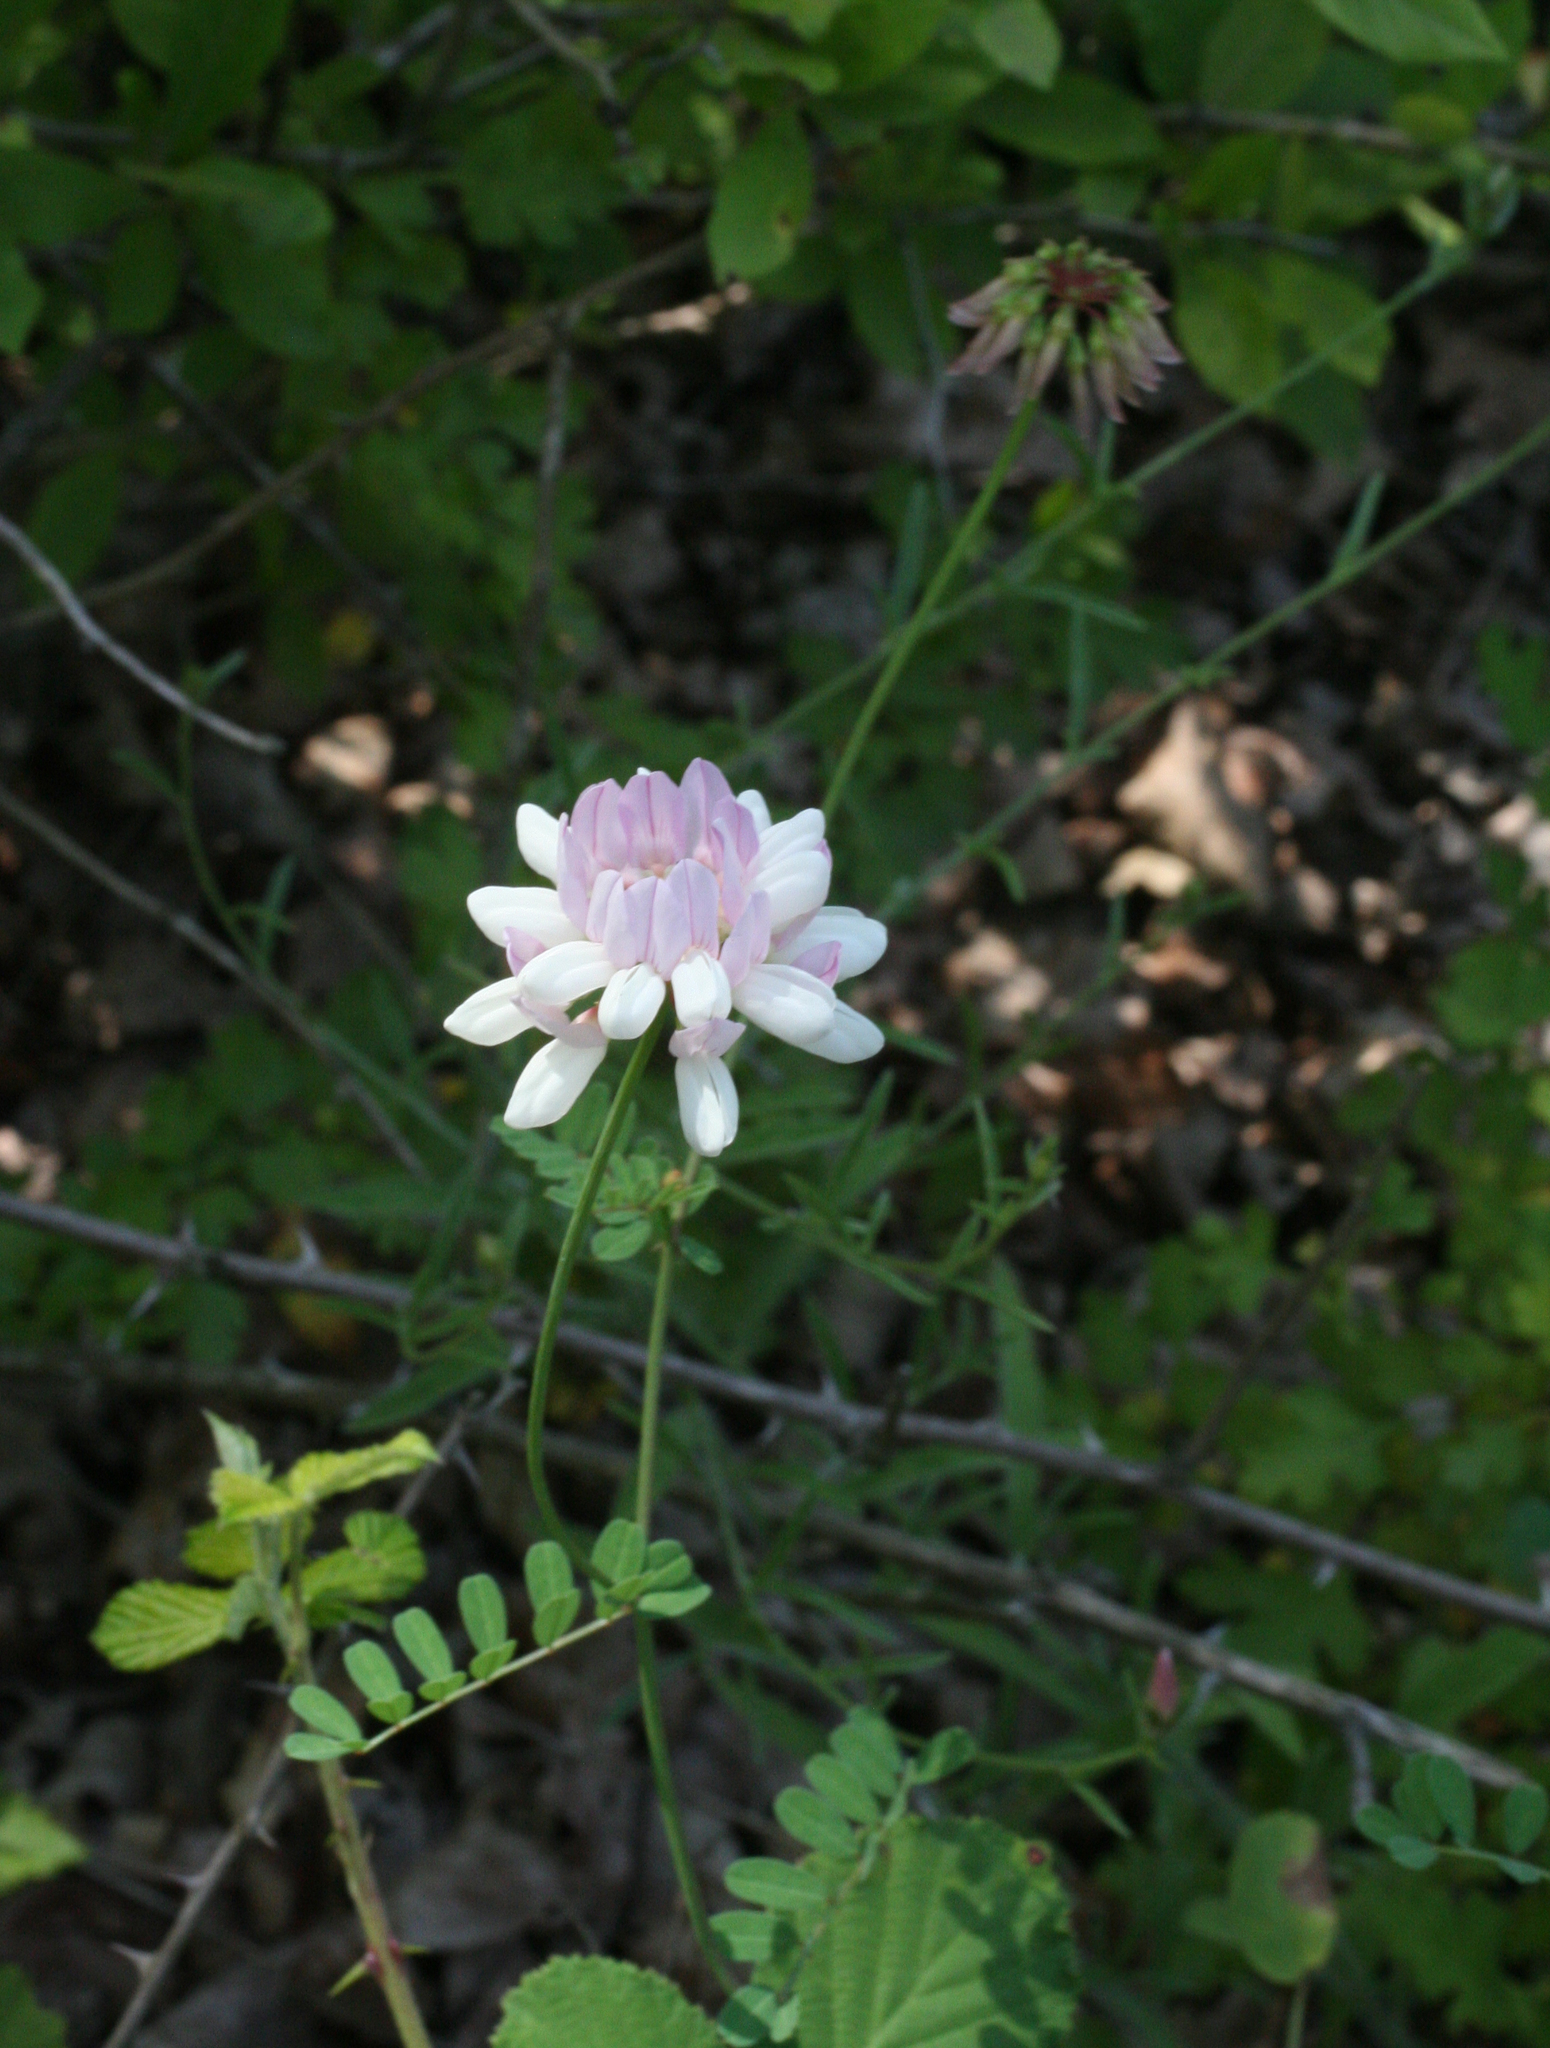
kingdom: Plantae
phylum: Tracheophyta
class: Magnoliopsida
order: Fabales
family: Fabaceae
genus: Coronilla
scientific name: Coronilla varia
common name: Crownvetch
